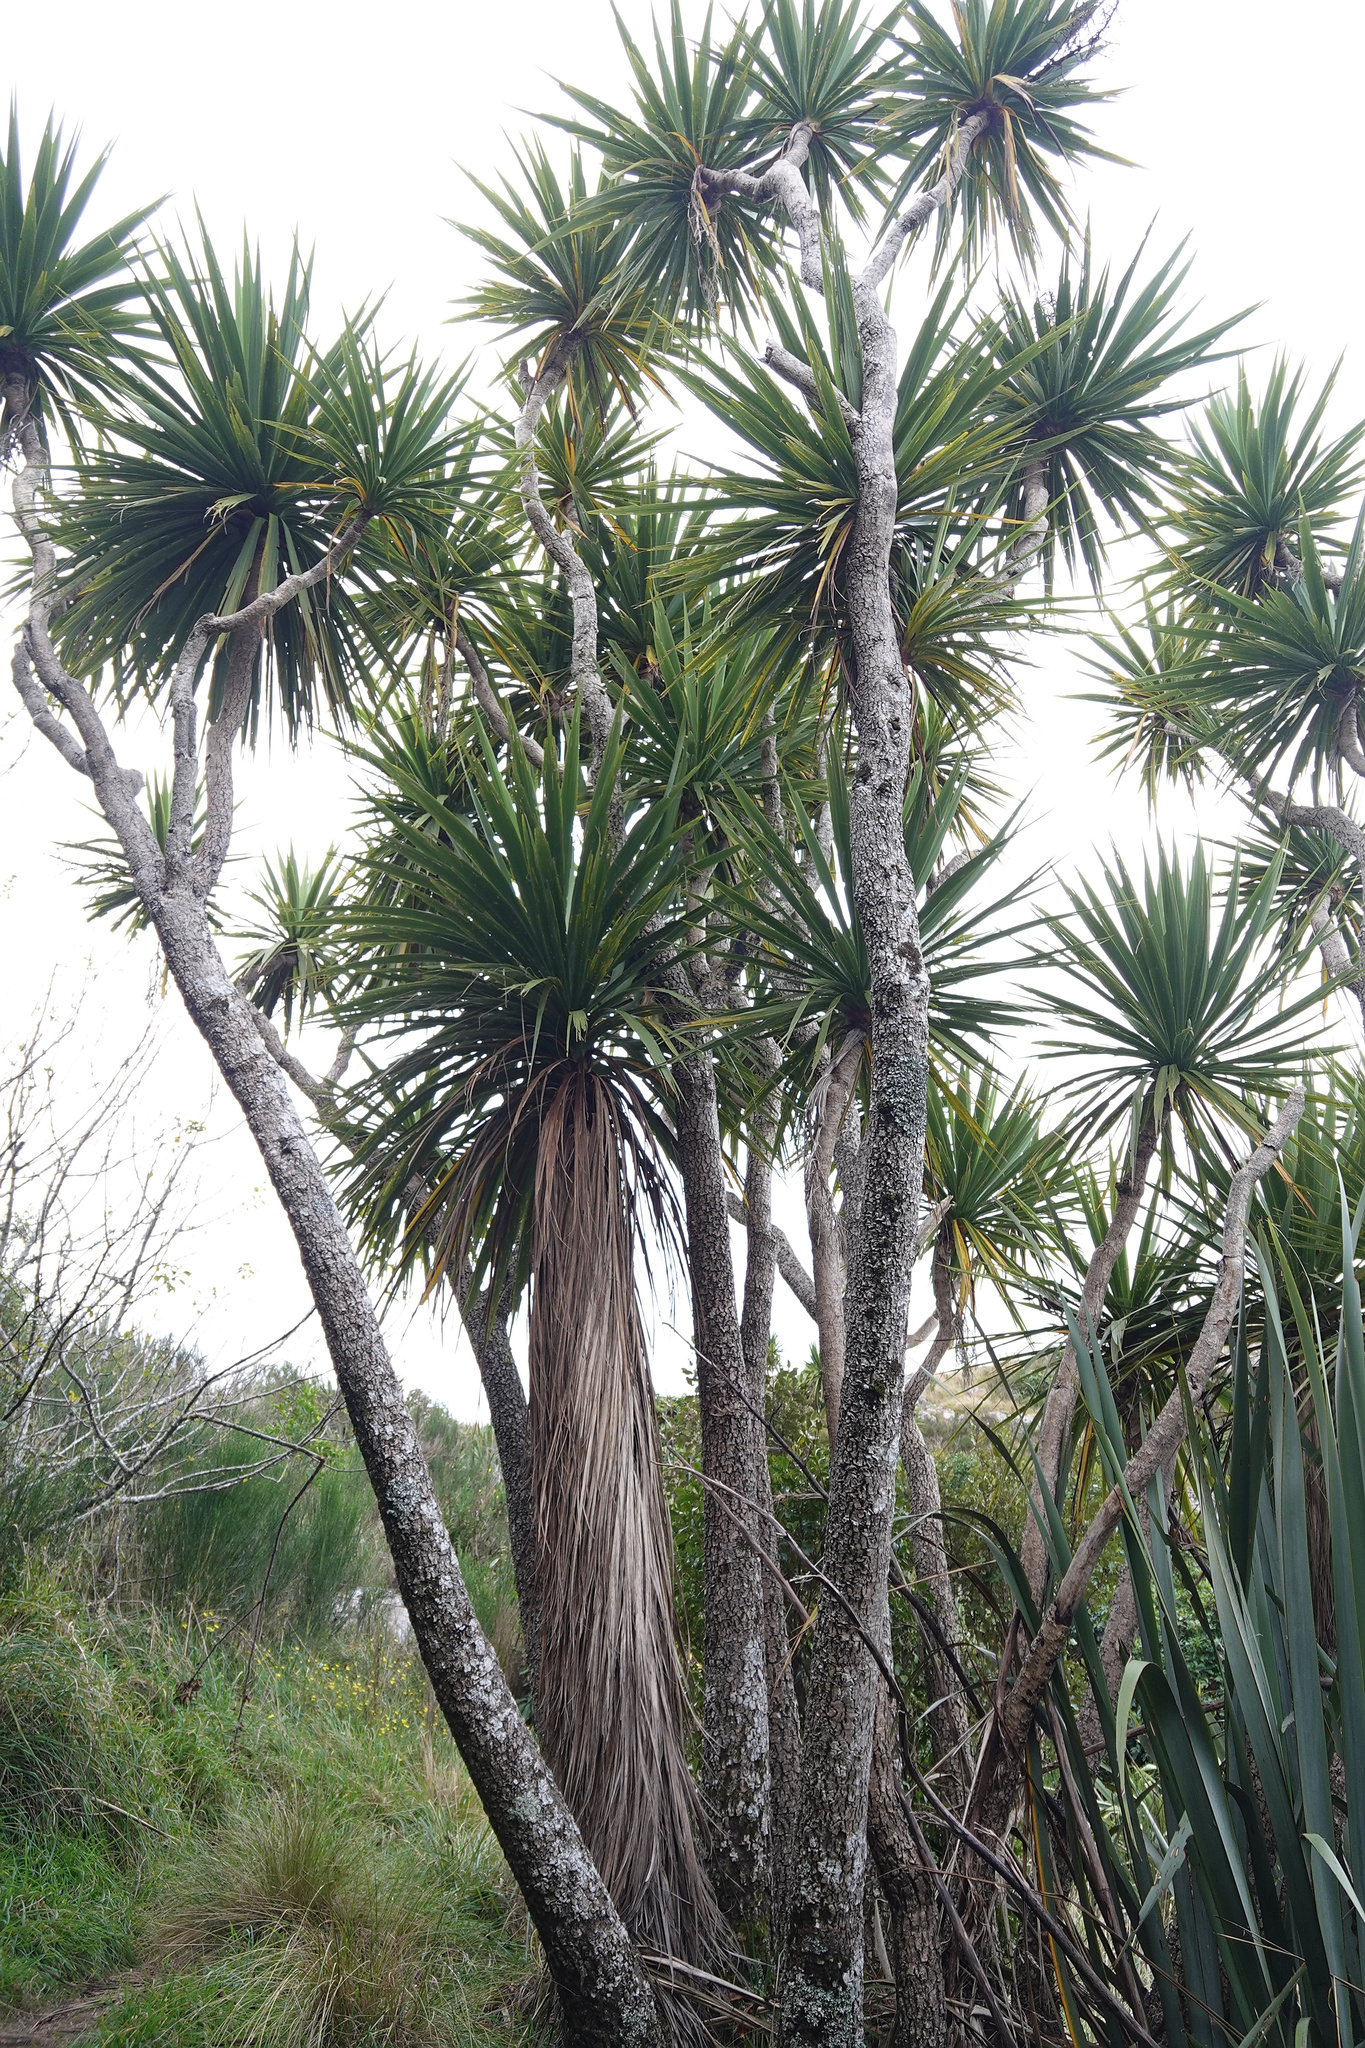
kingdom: Plantae
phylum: Tracheophyta
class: Liliopsida
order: Asparagales
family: Asparagaceae
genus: Cordyline
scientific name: Cordyline australis
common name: Cabbage-palm
